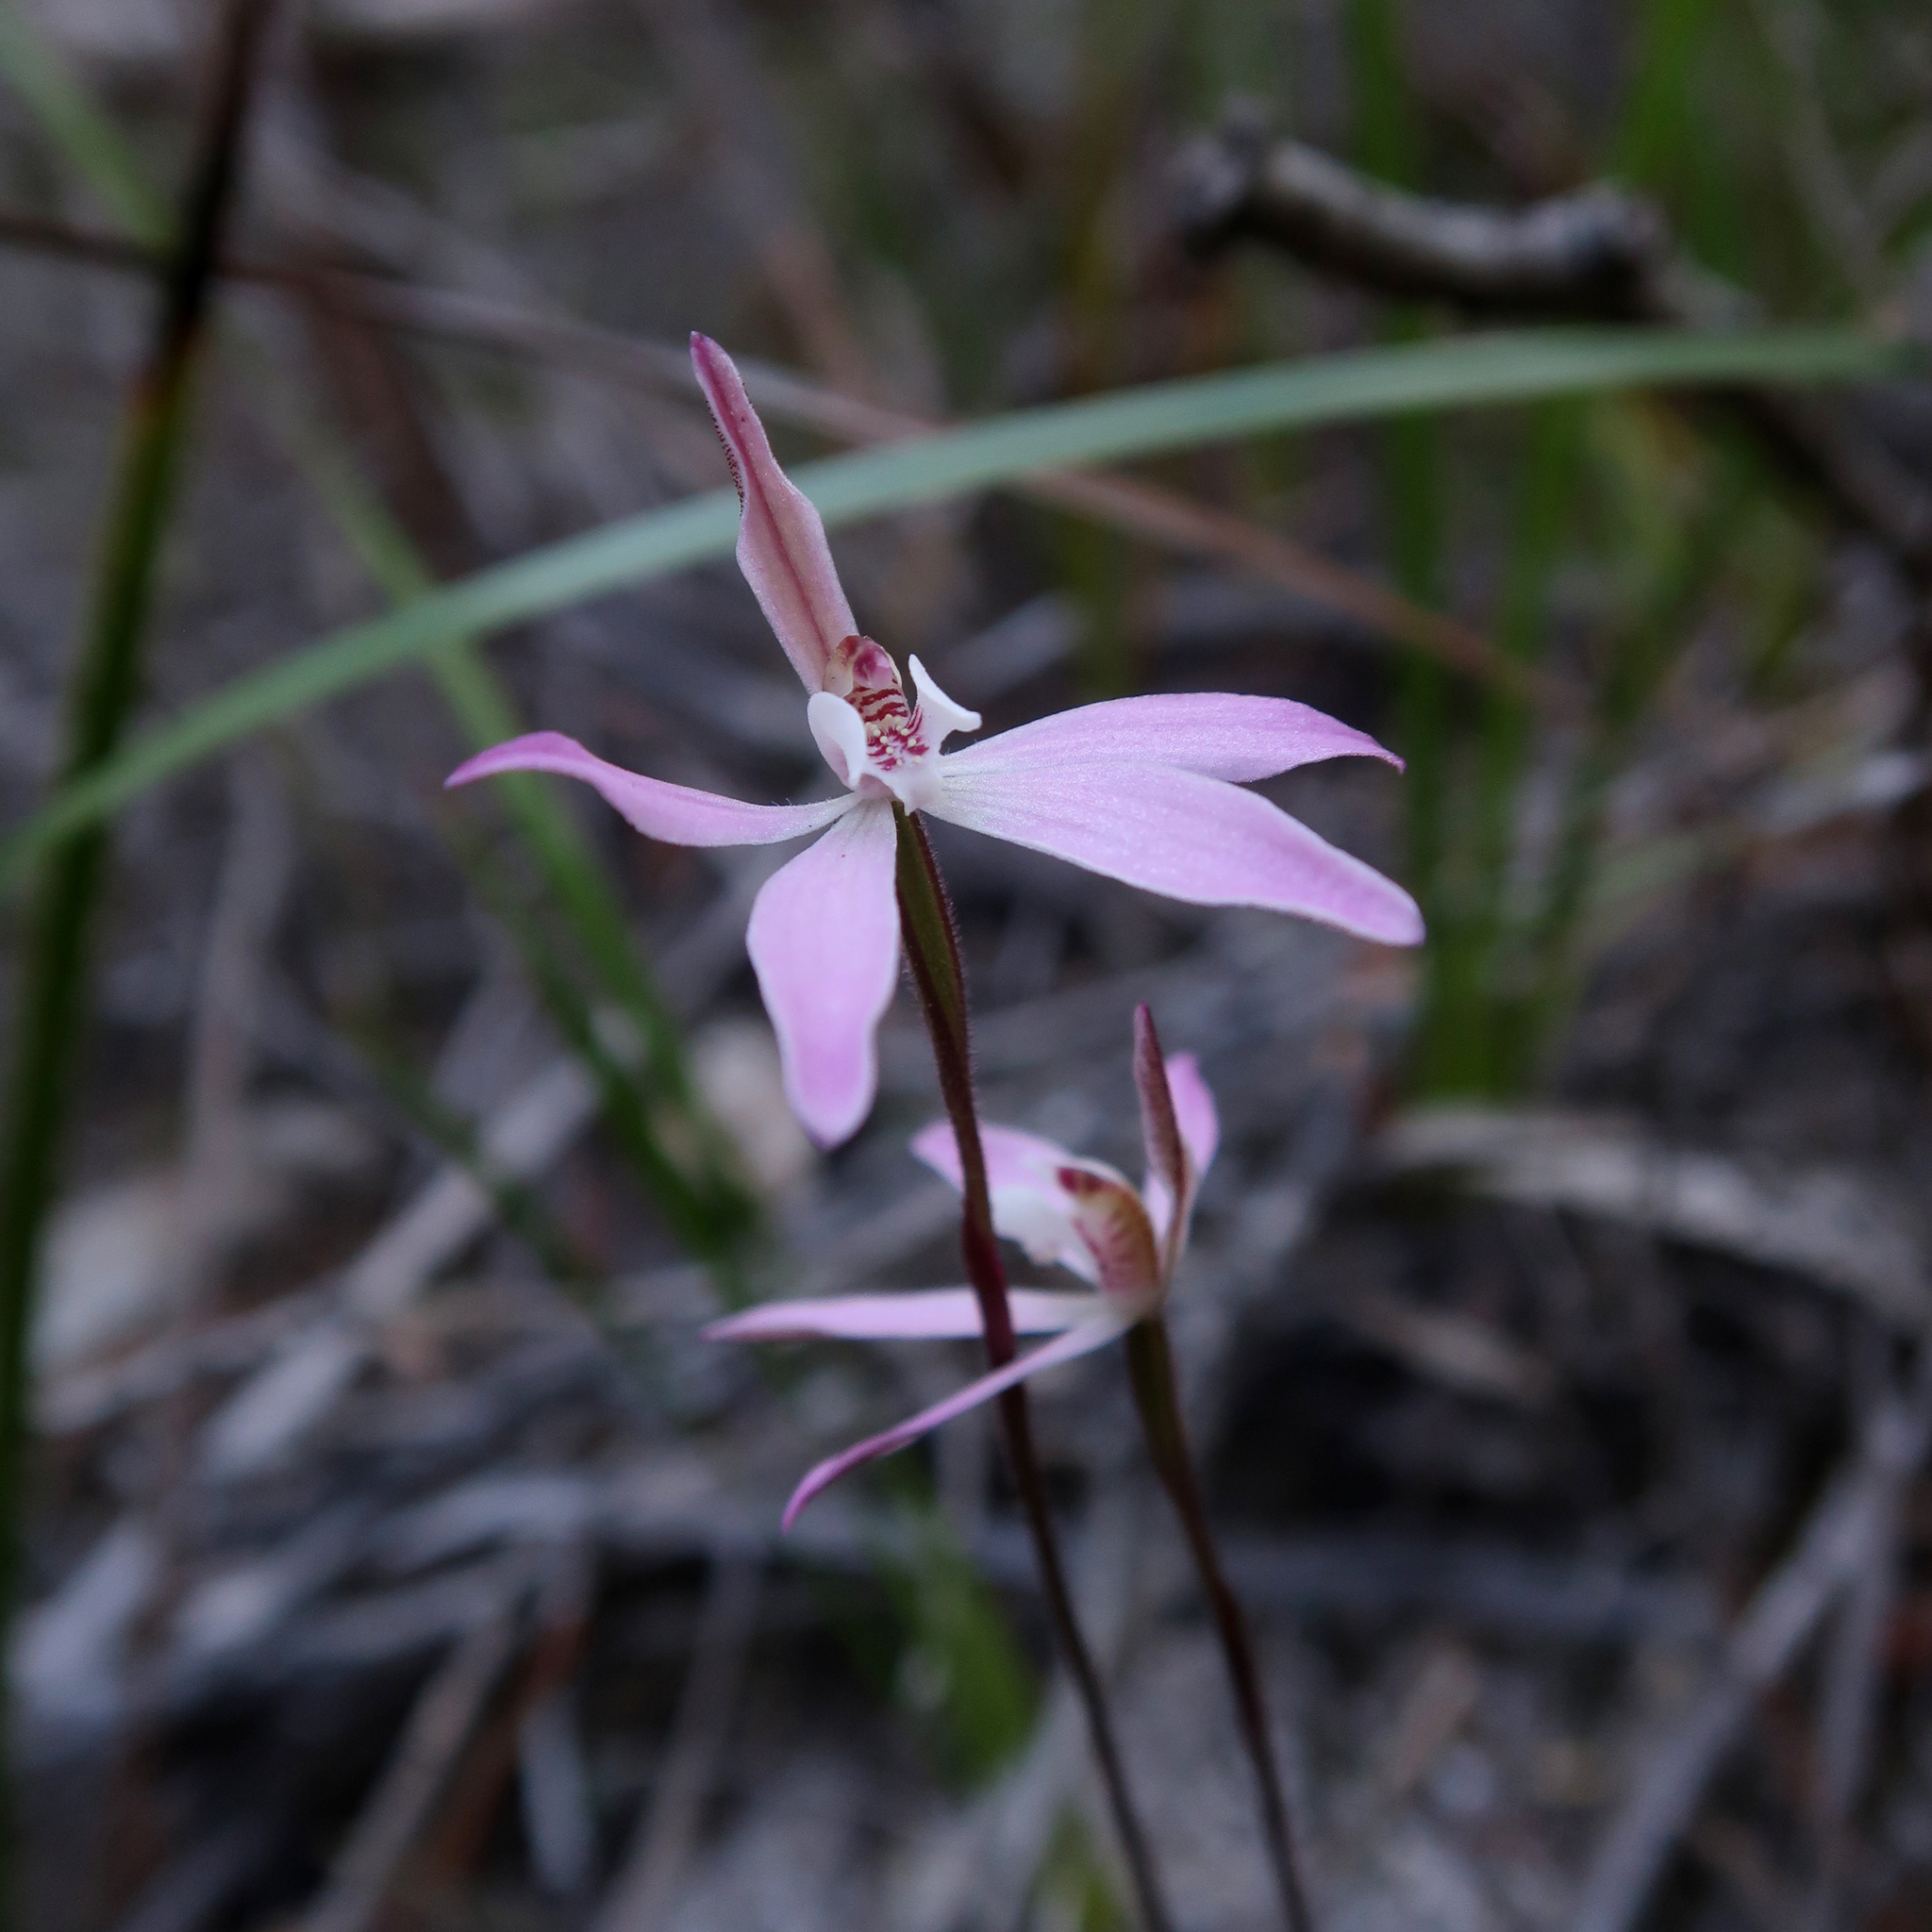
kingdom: Plantae
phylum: Tracheophyta
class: Liliopsida
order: Asparagales
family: Orchidaceae
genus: Caladenia
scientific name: Caladenia fuscata
